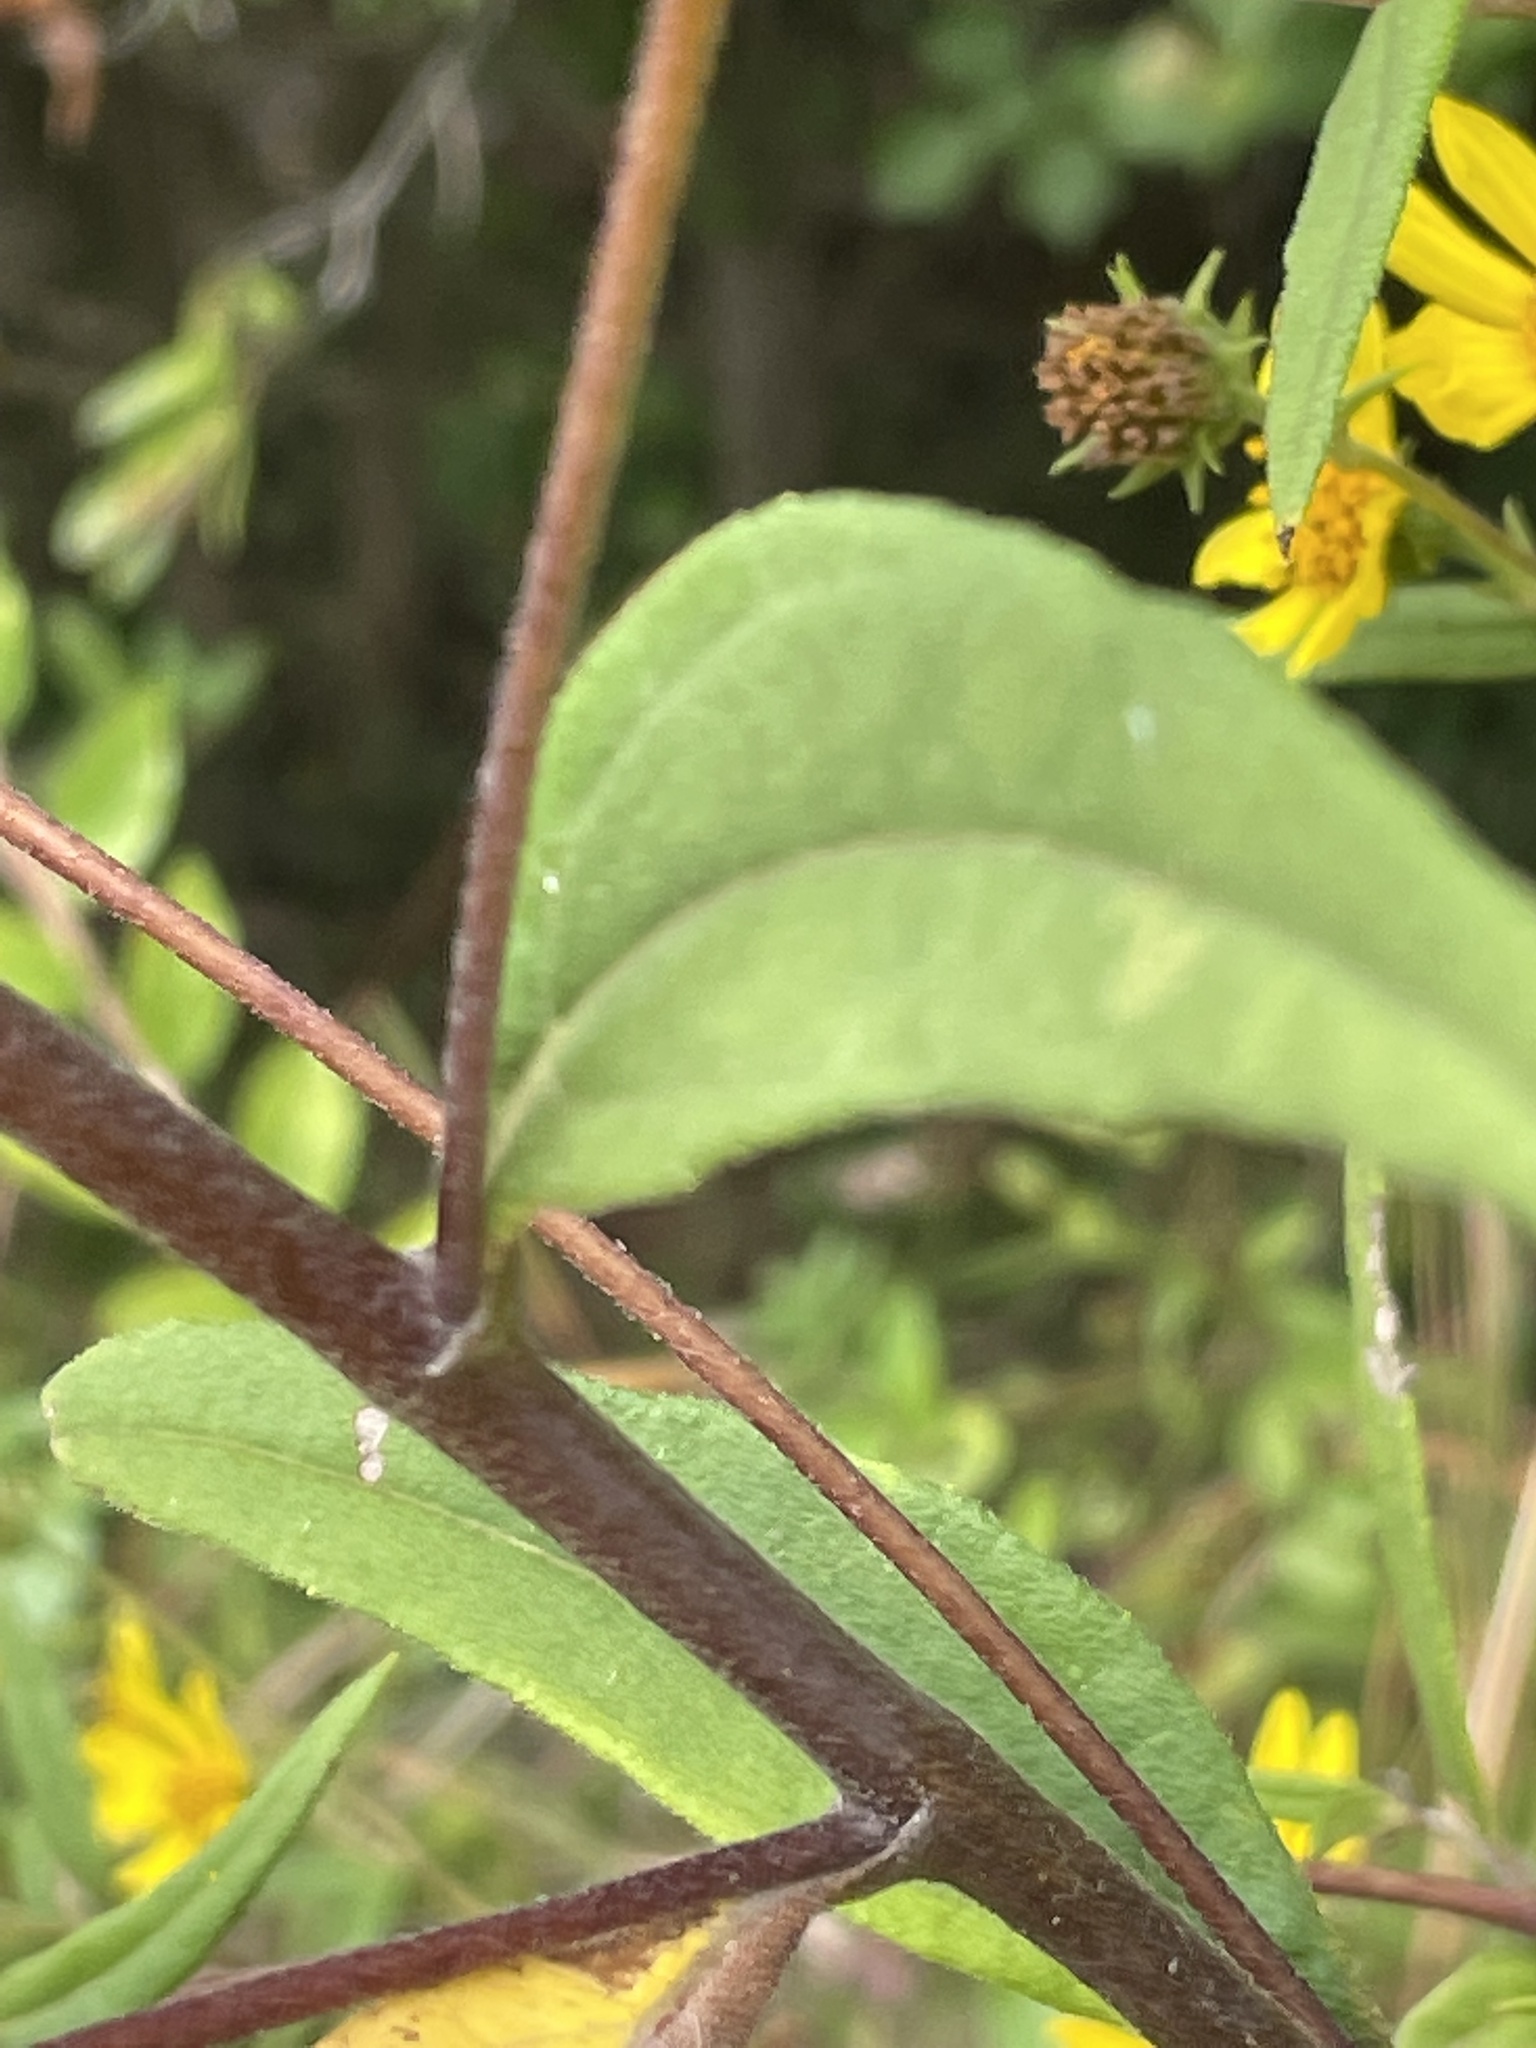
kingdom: Plantae
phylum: Tracheophyta
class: Magnoliopsida
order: Asterales
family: Asteraceae
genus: Helianthus
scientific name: Helianthus schweinitzii
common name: Schweinitz's sunflower
